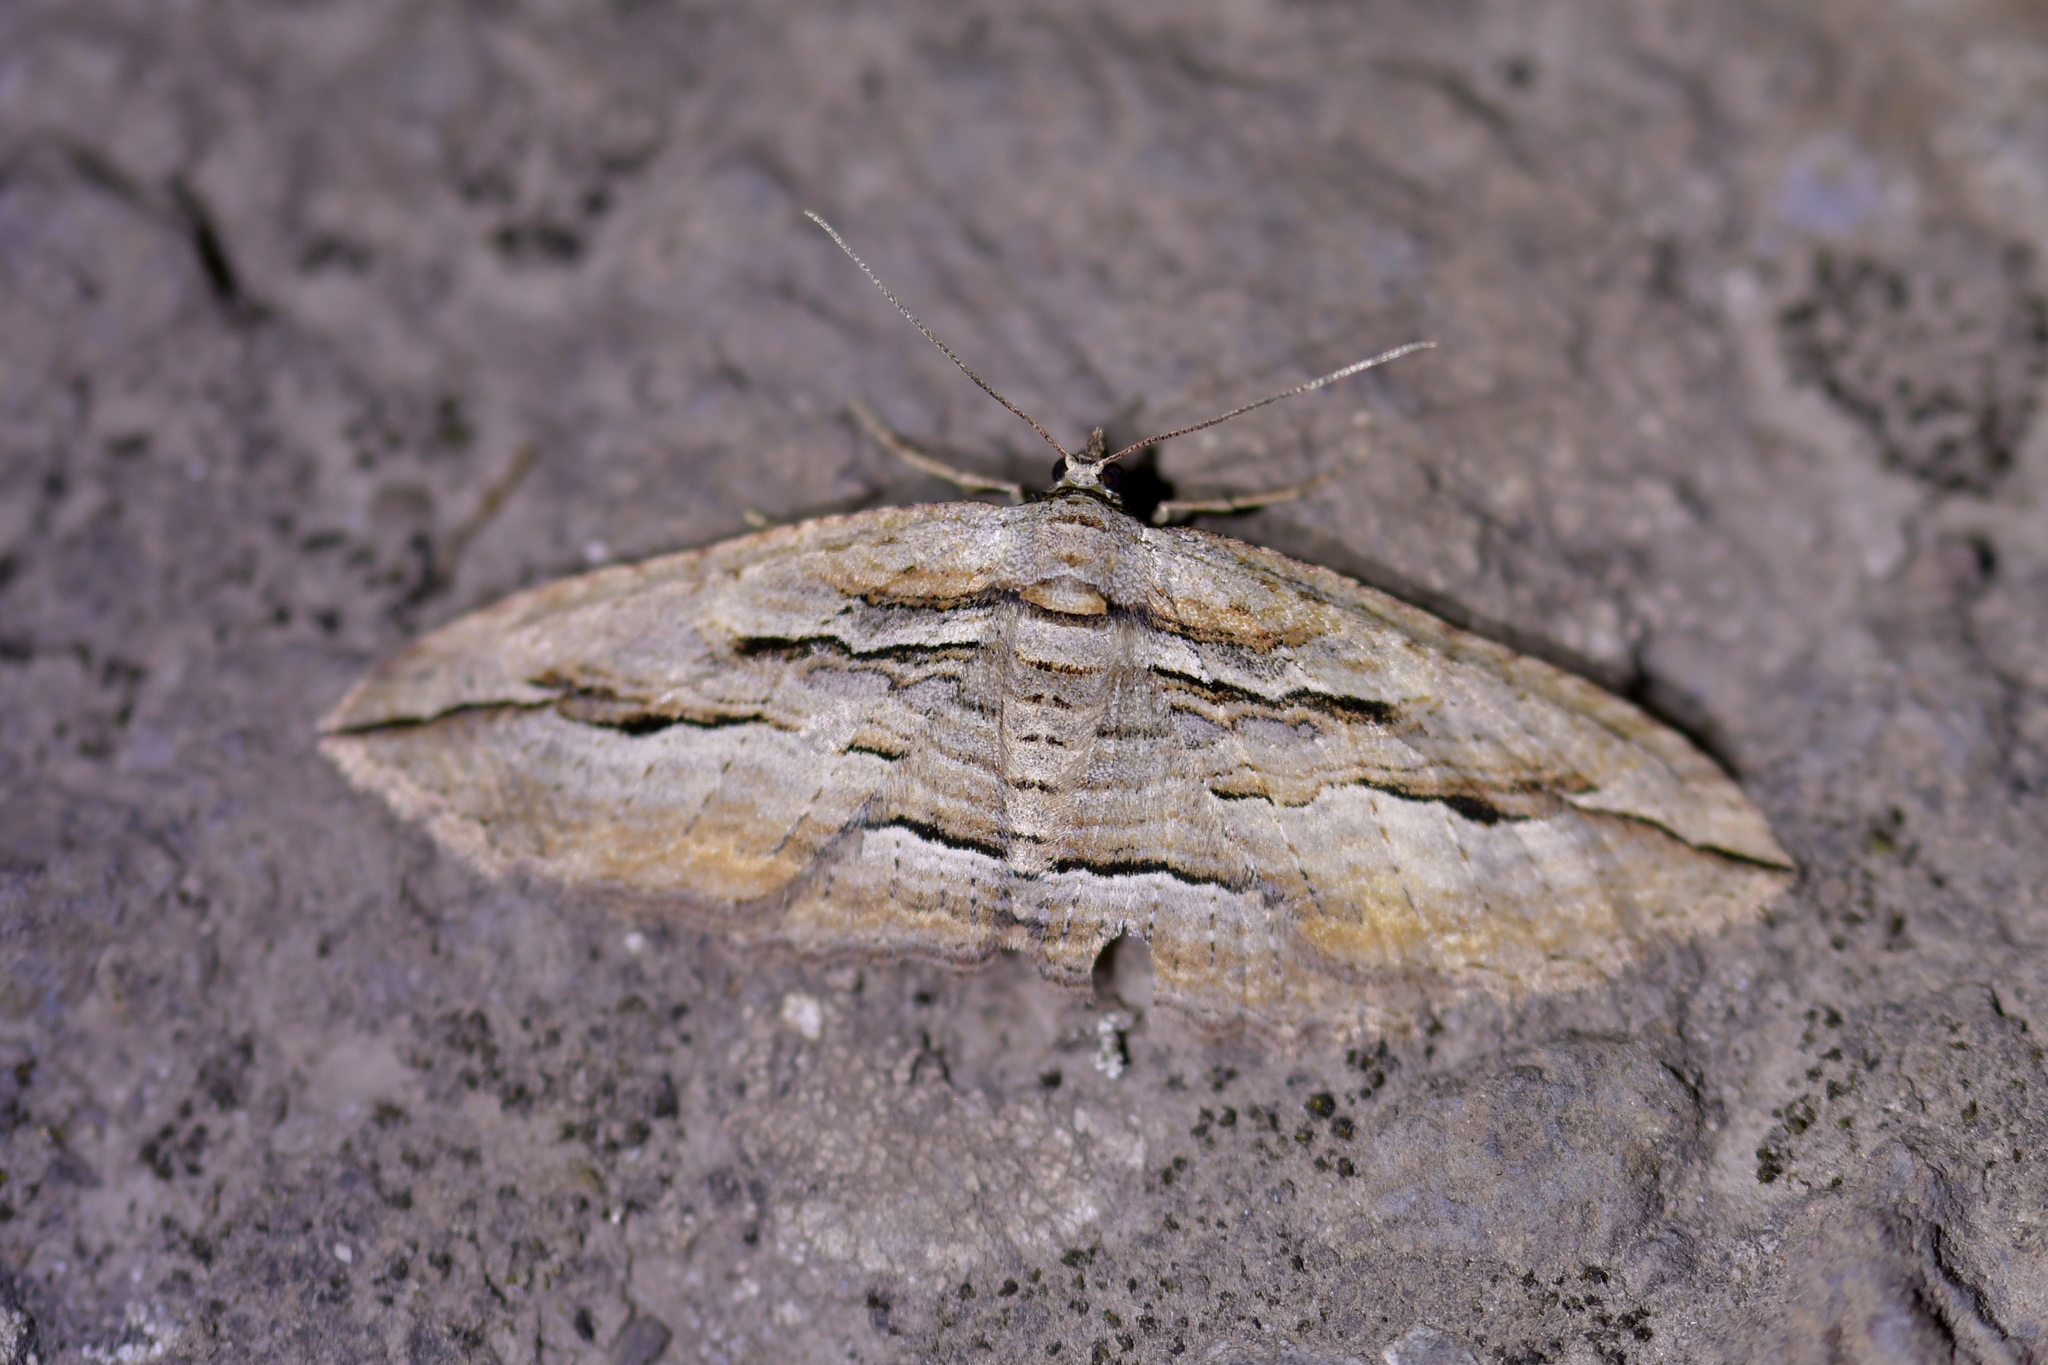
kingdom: Animalia
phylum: Arthropoda
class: Insecta
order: Lepidoptera
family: Geometridae
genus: Austrocidaria
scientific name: Austrocidaria gobiata
